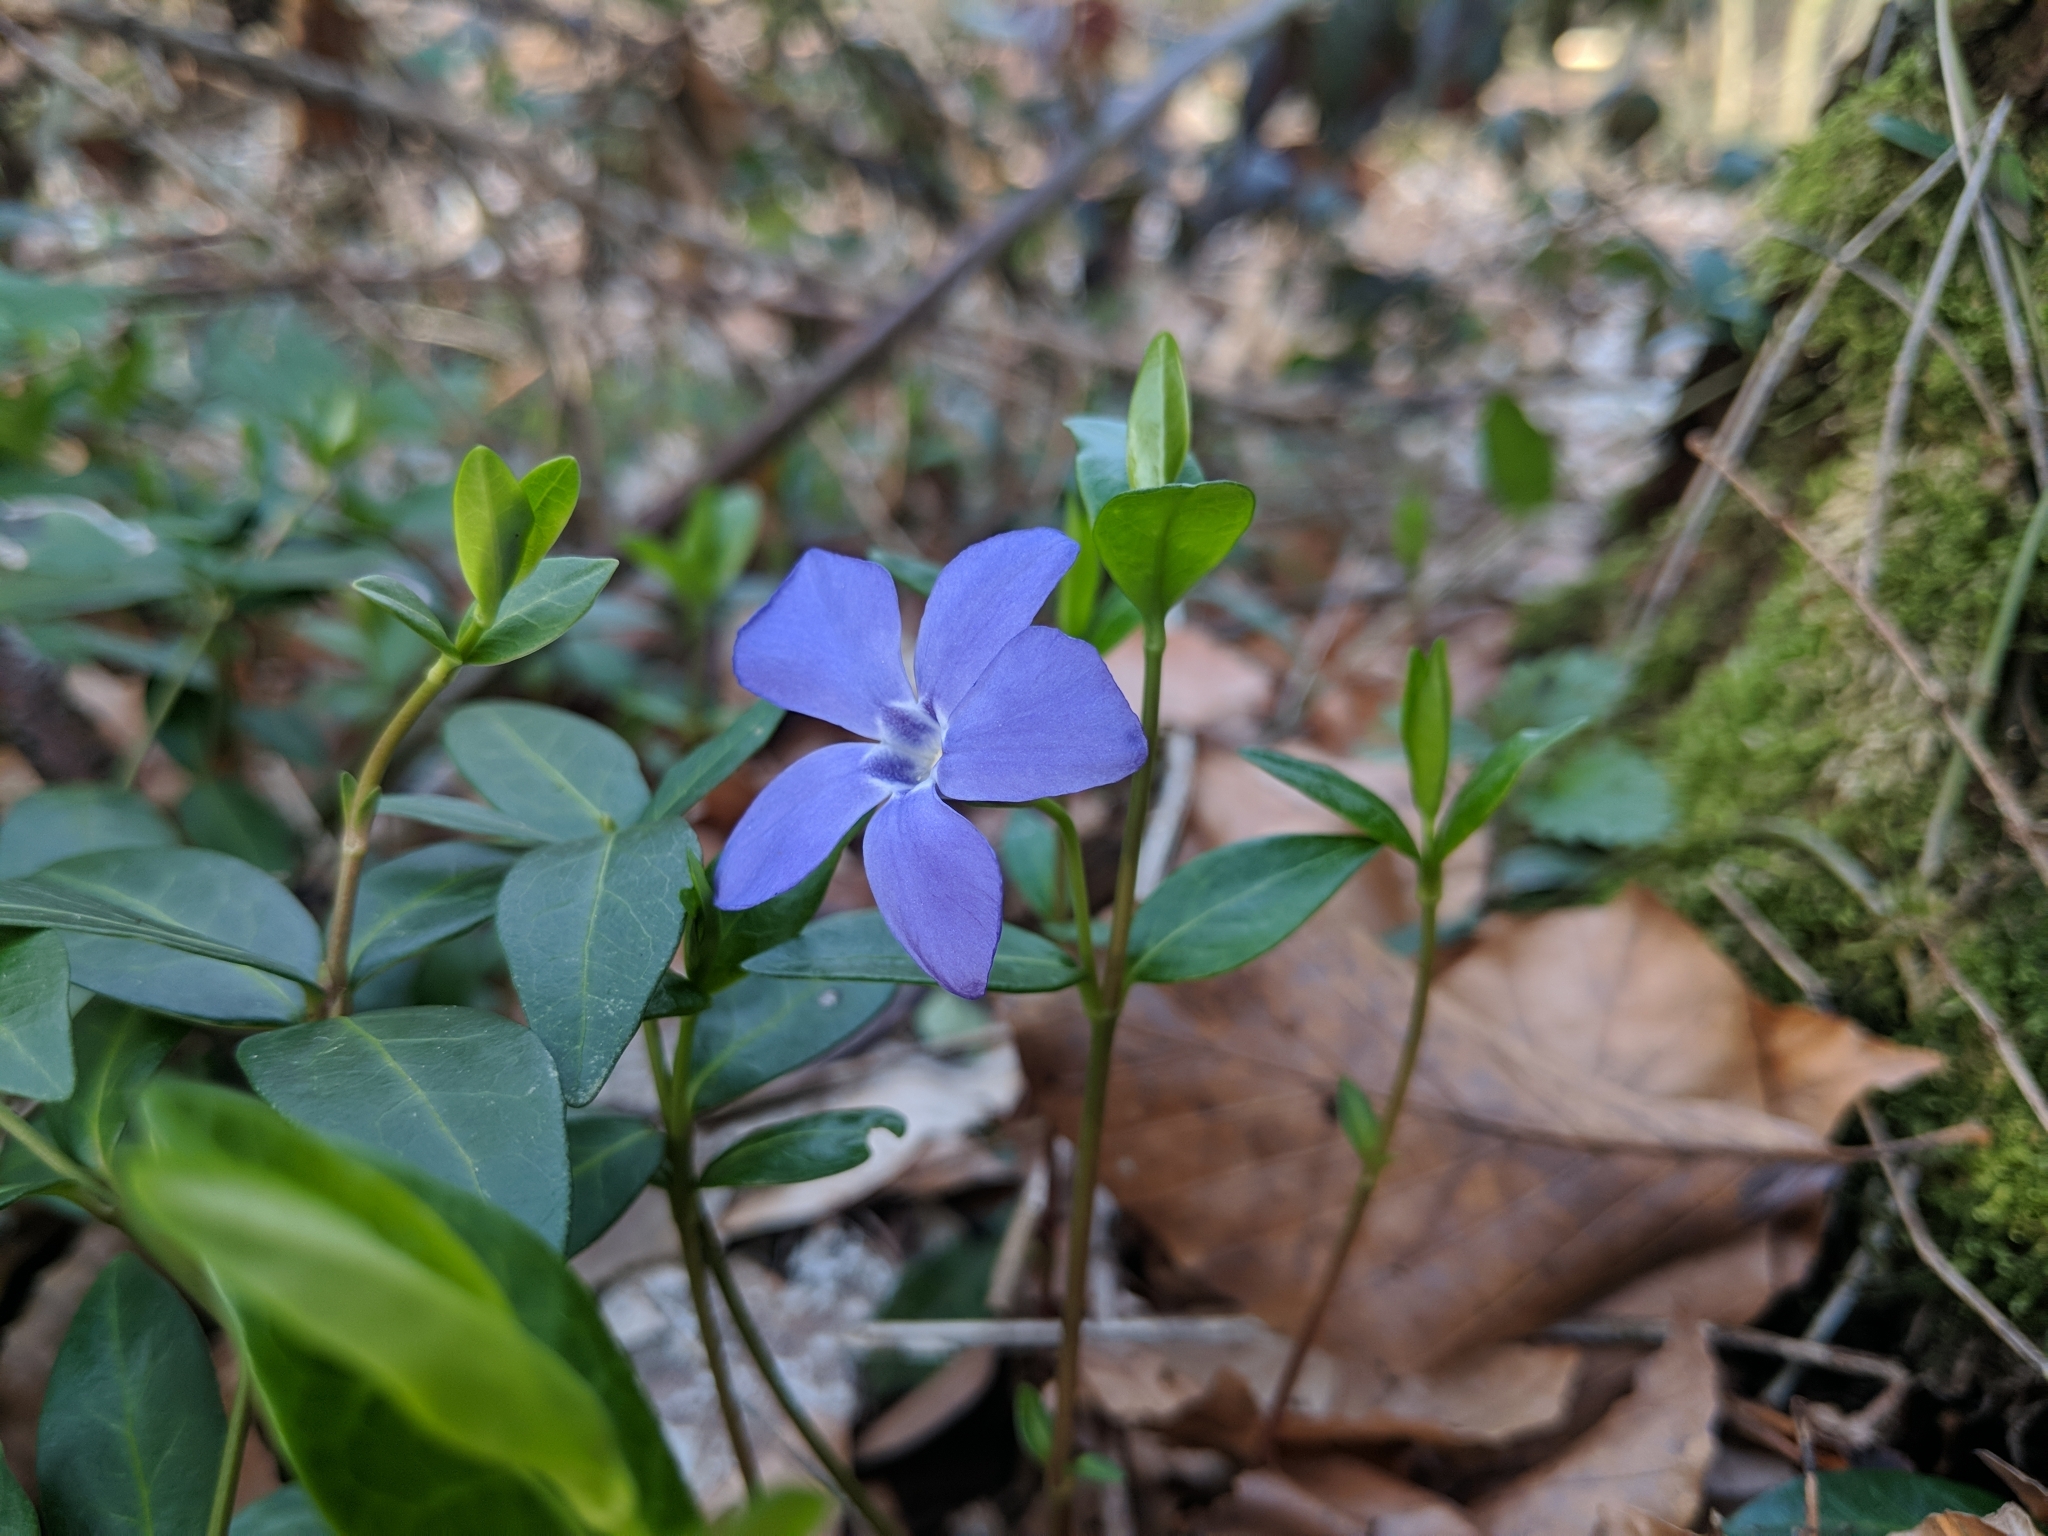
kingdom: Plantae
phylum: Tracheophyta
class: Magnoliopsida
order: Gentianales
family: Apocynaceae
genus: Vinca
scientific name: Vinca minor
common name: Lesser periwinkle
